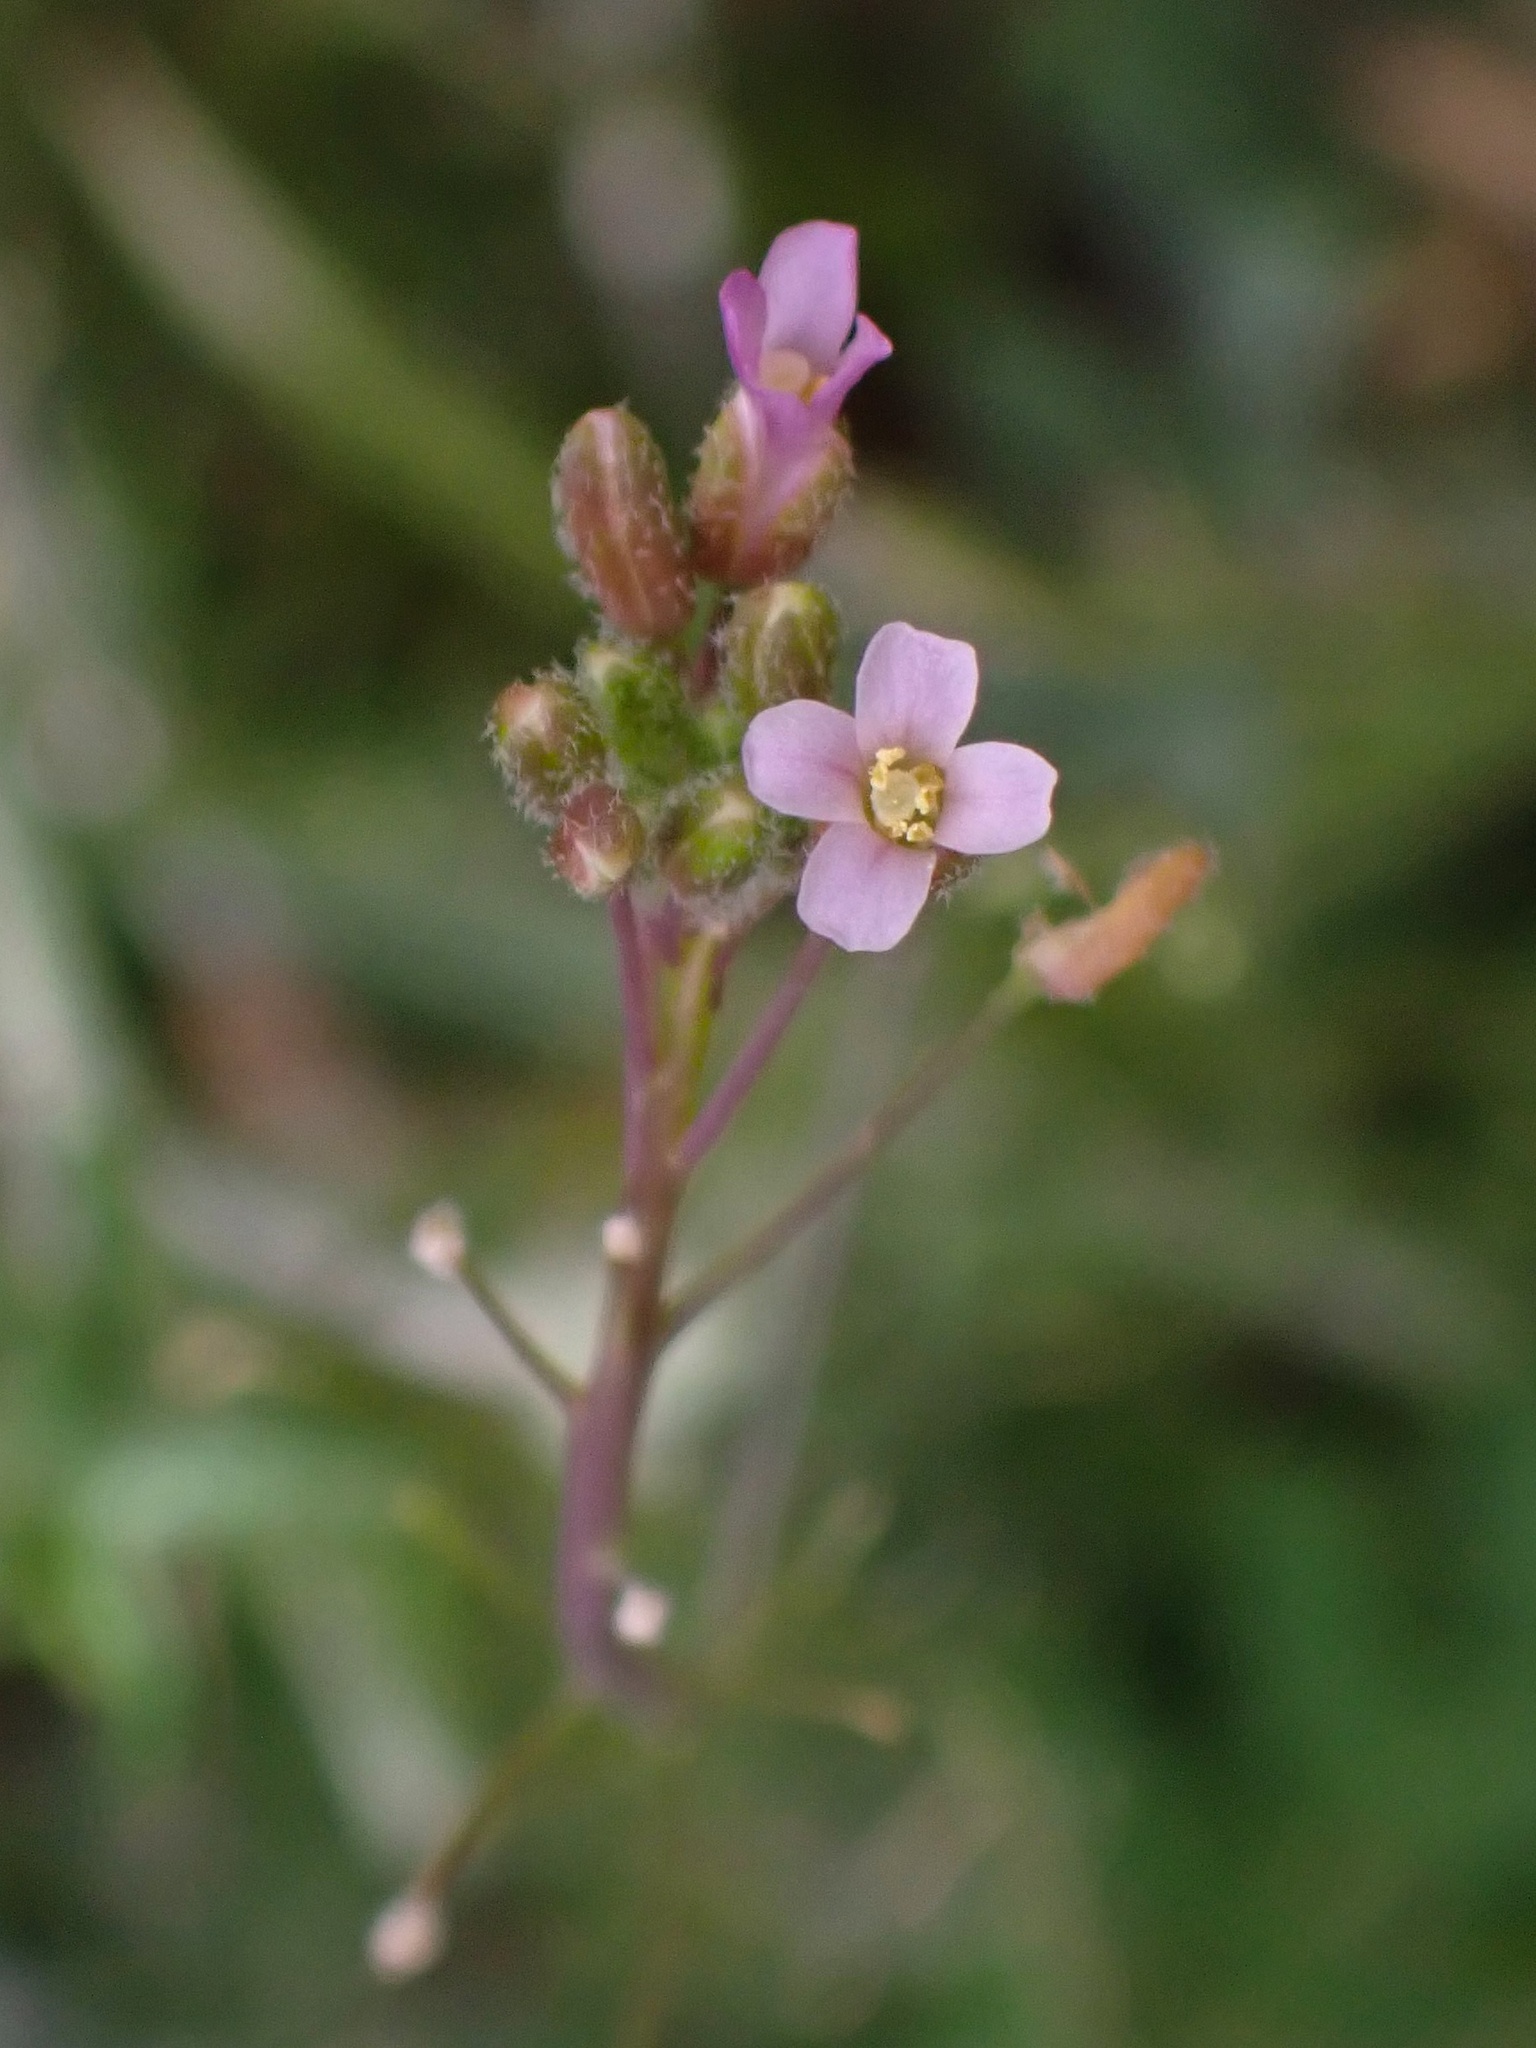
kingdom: Plantae
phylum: Tracheophyta
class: Magnoliopsida
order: Brassicales
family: Brassicaceae
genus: Boechera
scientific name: Boechera perennans
